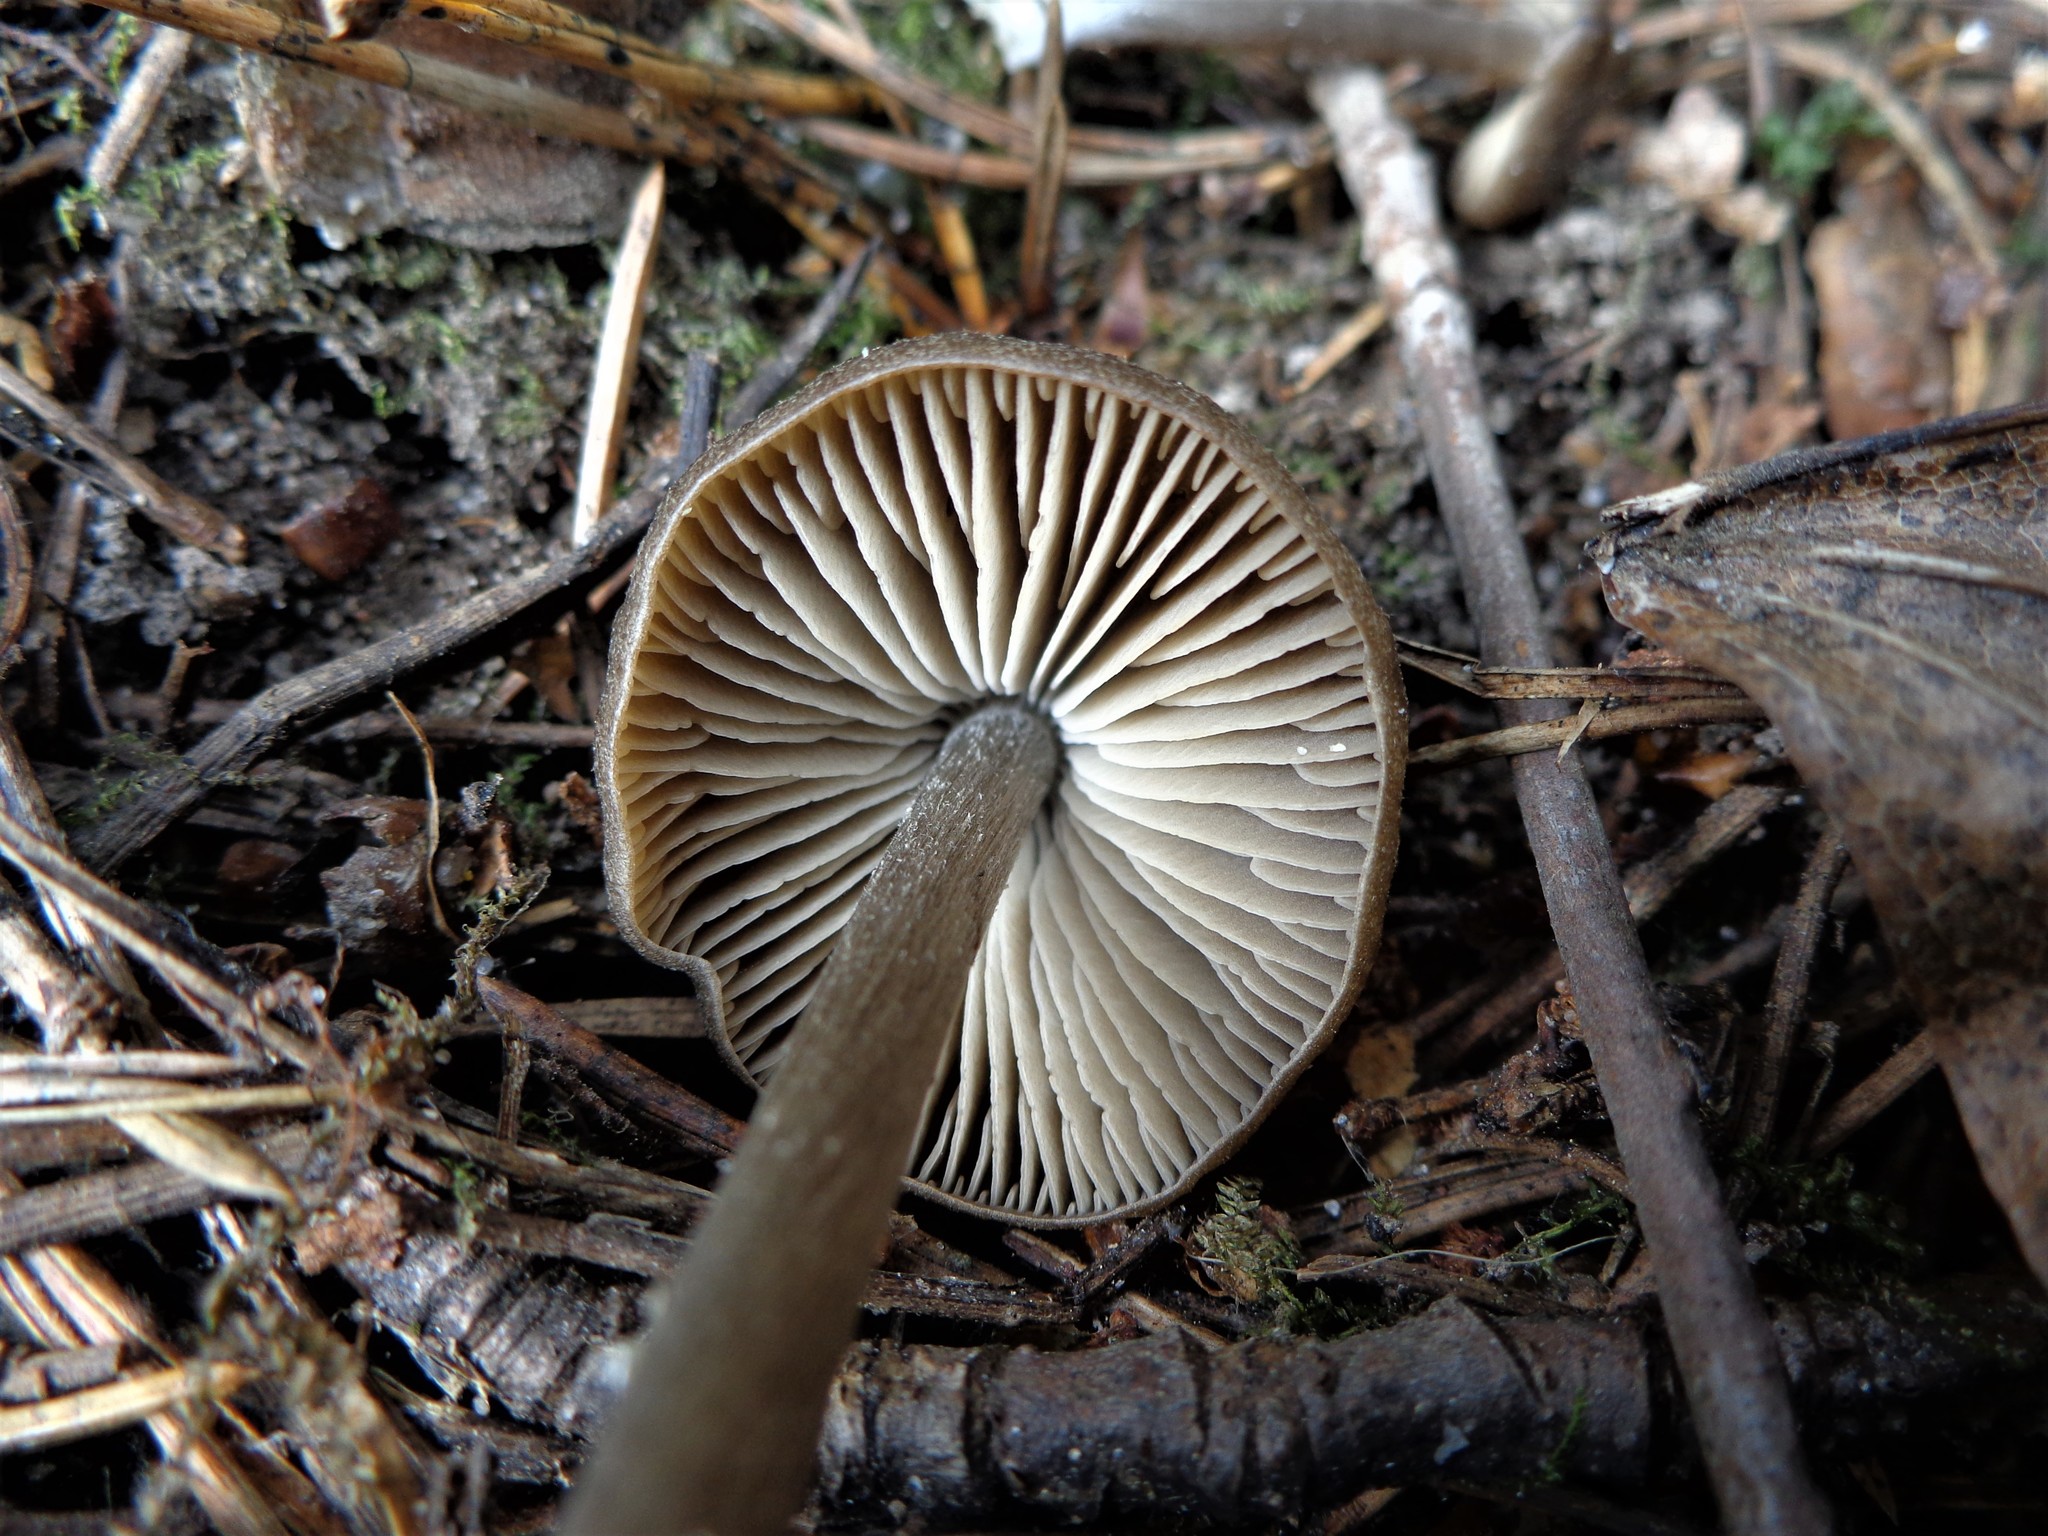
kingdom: Fungi
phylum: Basidiomycota
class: Agaricomycetes
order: Agaricales
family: Entolomataceae
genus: Entoloma
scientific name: Entoloma vernum
